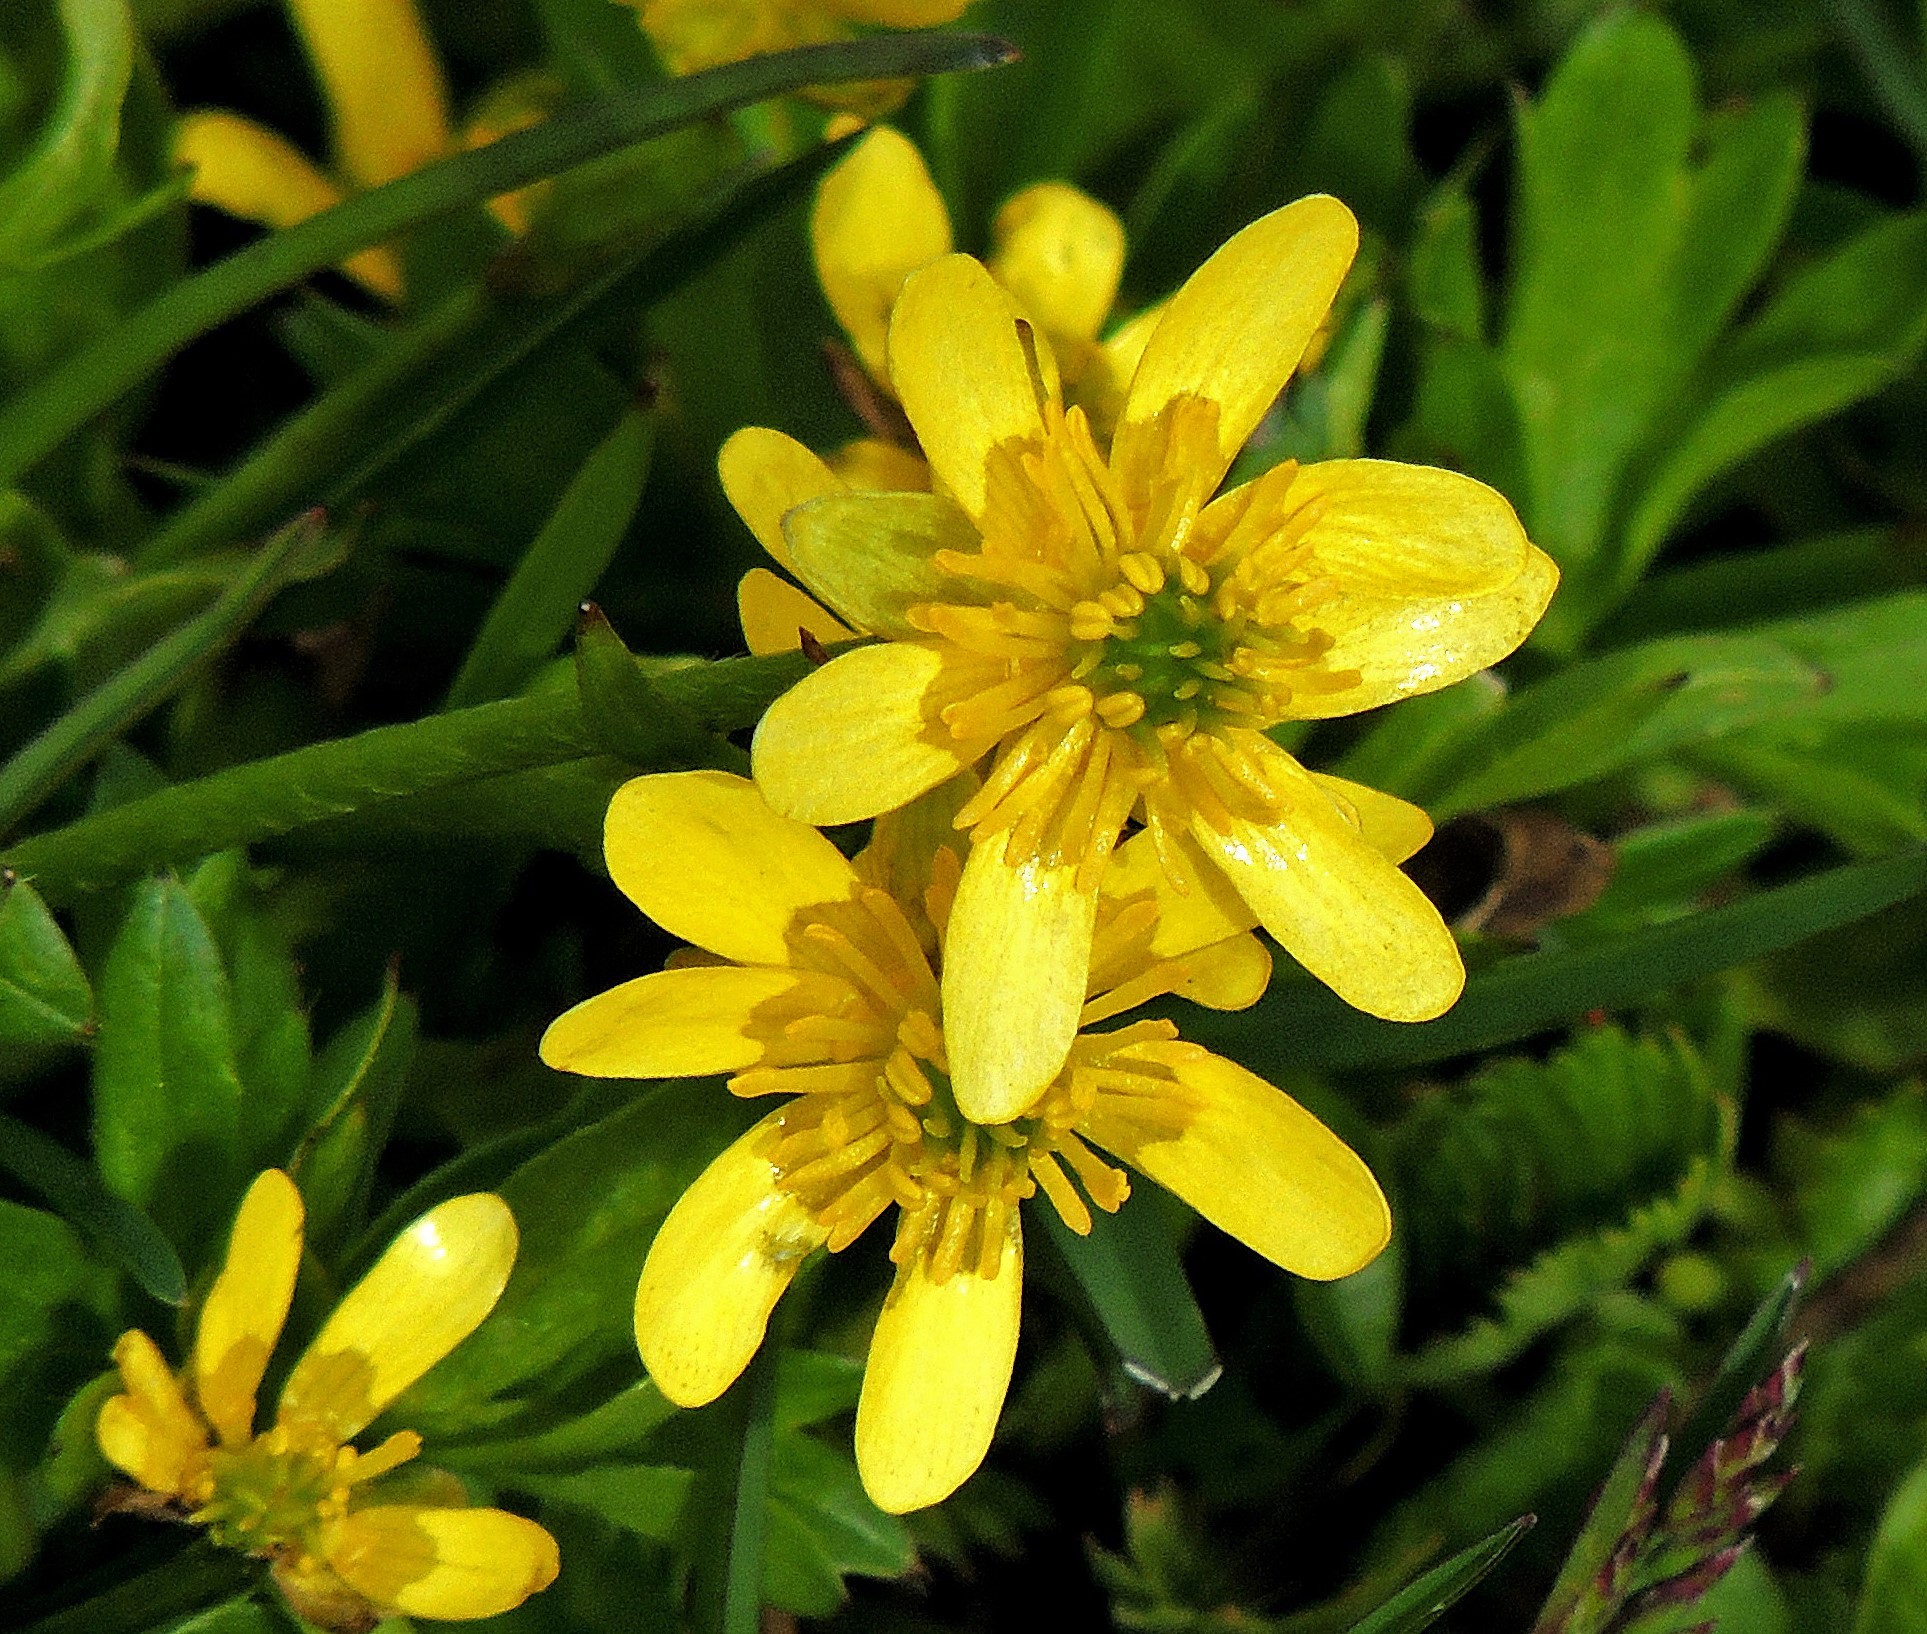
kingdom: Plantae
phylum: Tracheophyta
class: Magnoliopsida
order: Ranunculales
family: Ranunculaceae
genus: Ranunculus
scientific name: Ranunculus repens
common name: Creeping buttercup
